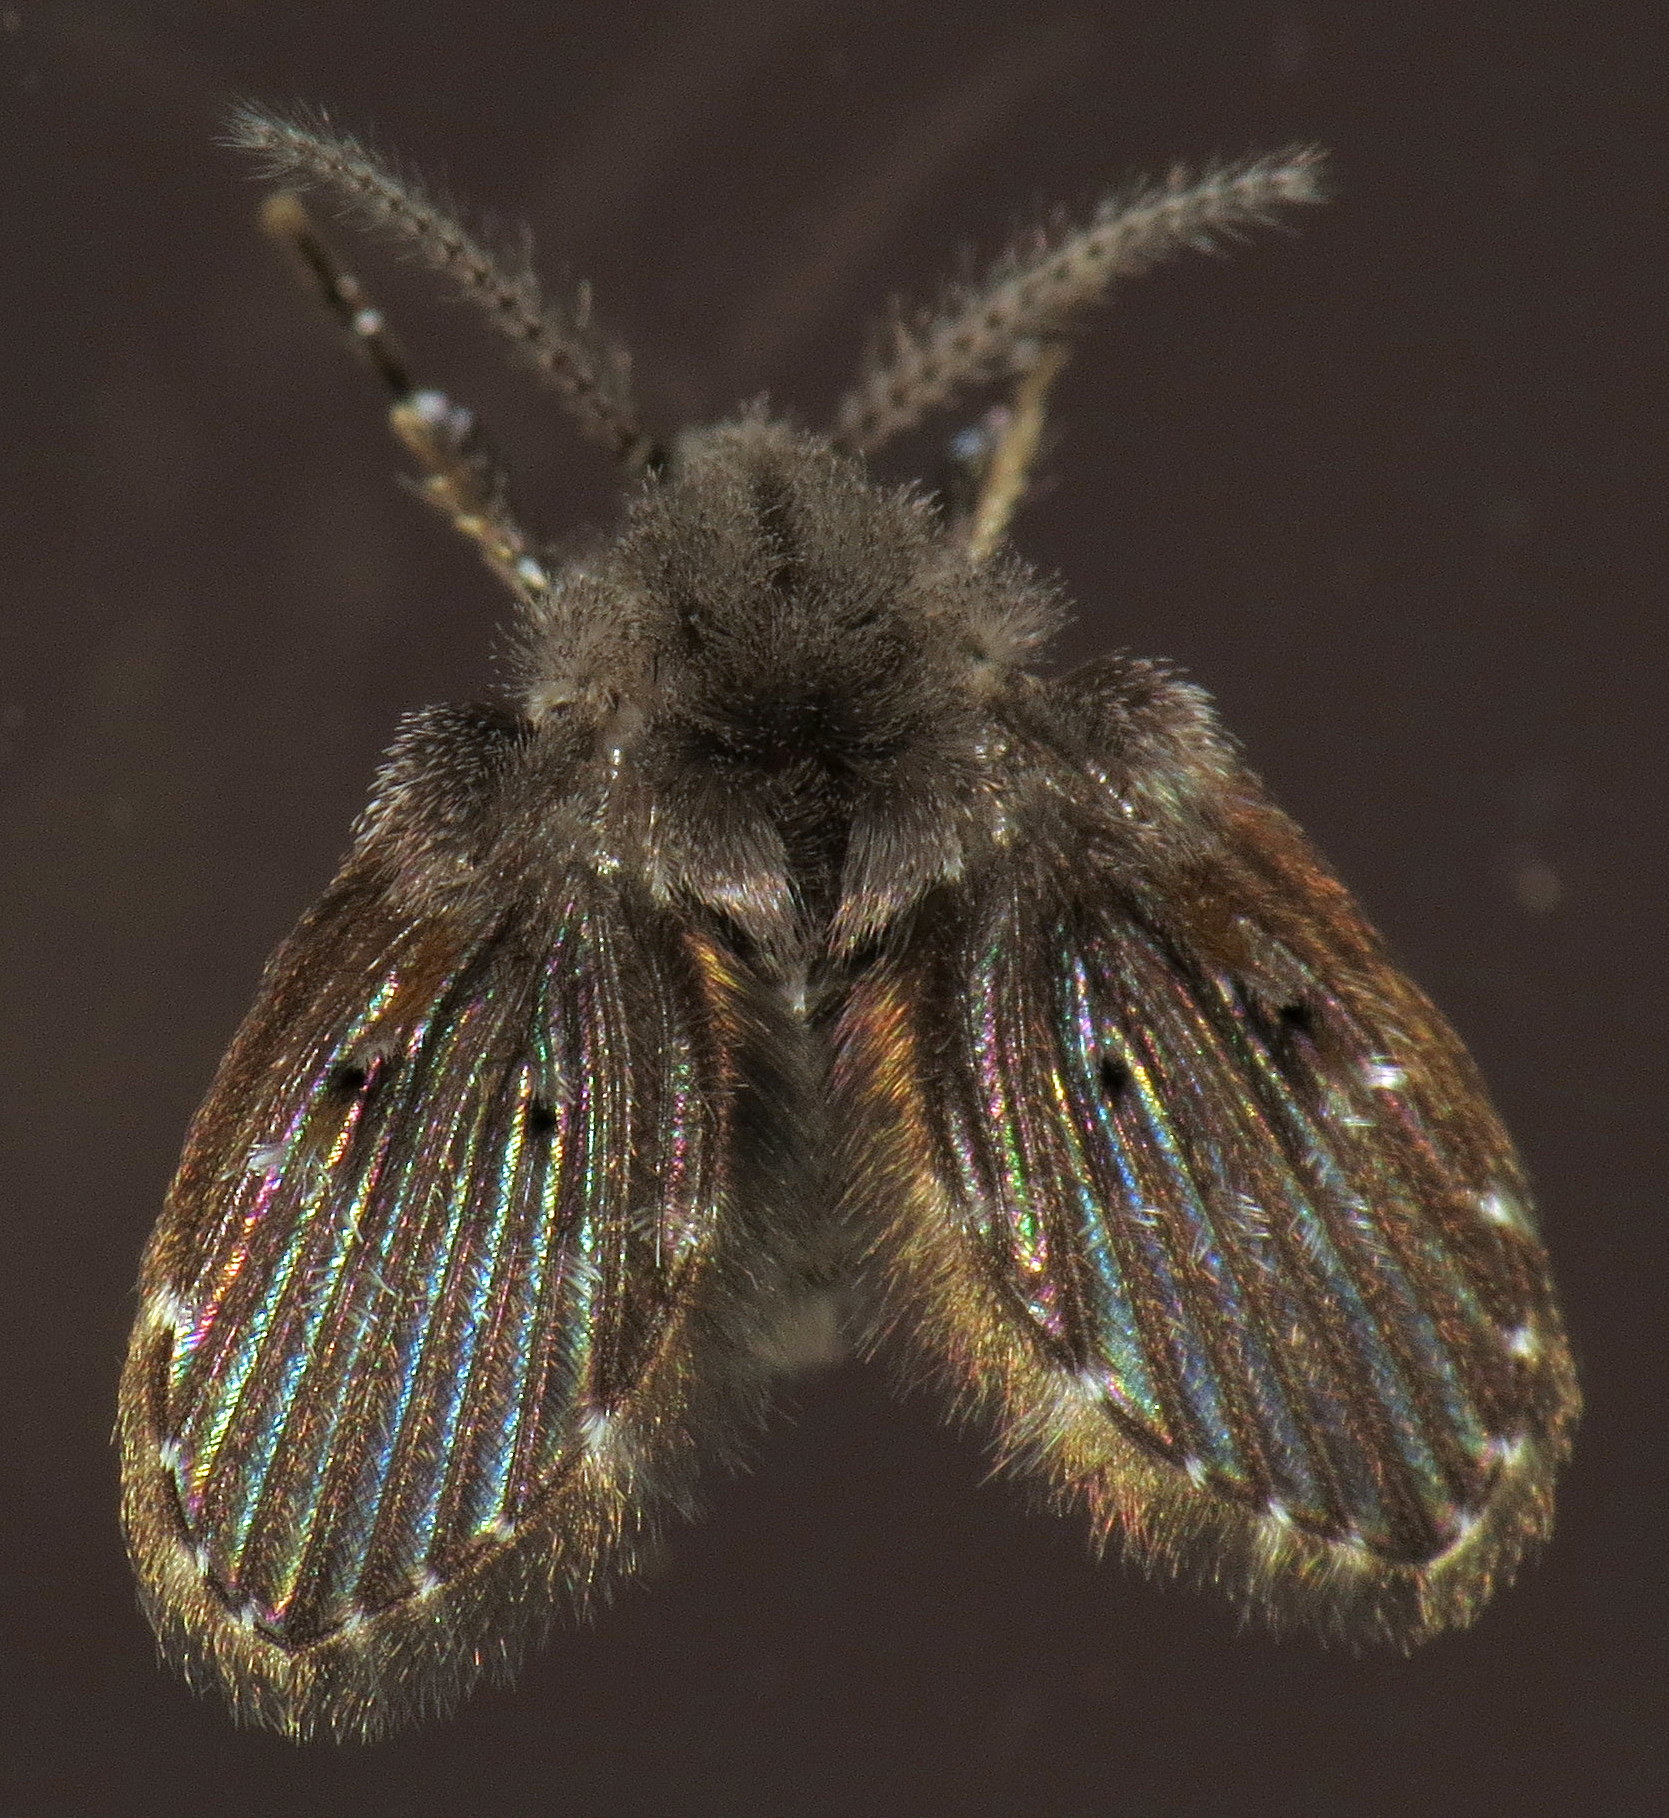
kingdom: Animalia
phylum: Arthropoda
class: Insecta
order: Diptera
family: Psychodidae
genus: Clogmia
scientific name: Clogmia albipunctatus
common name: White-spotted moth fly
